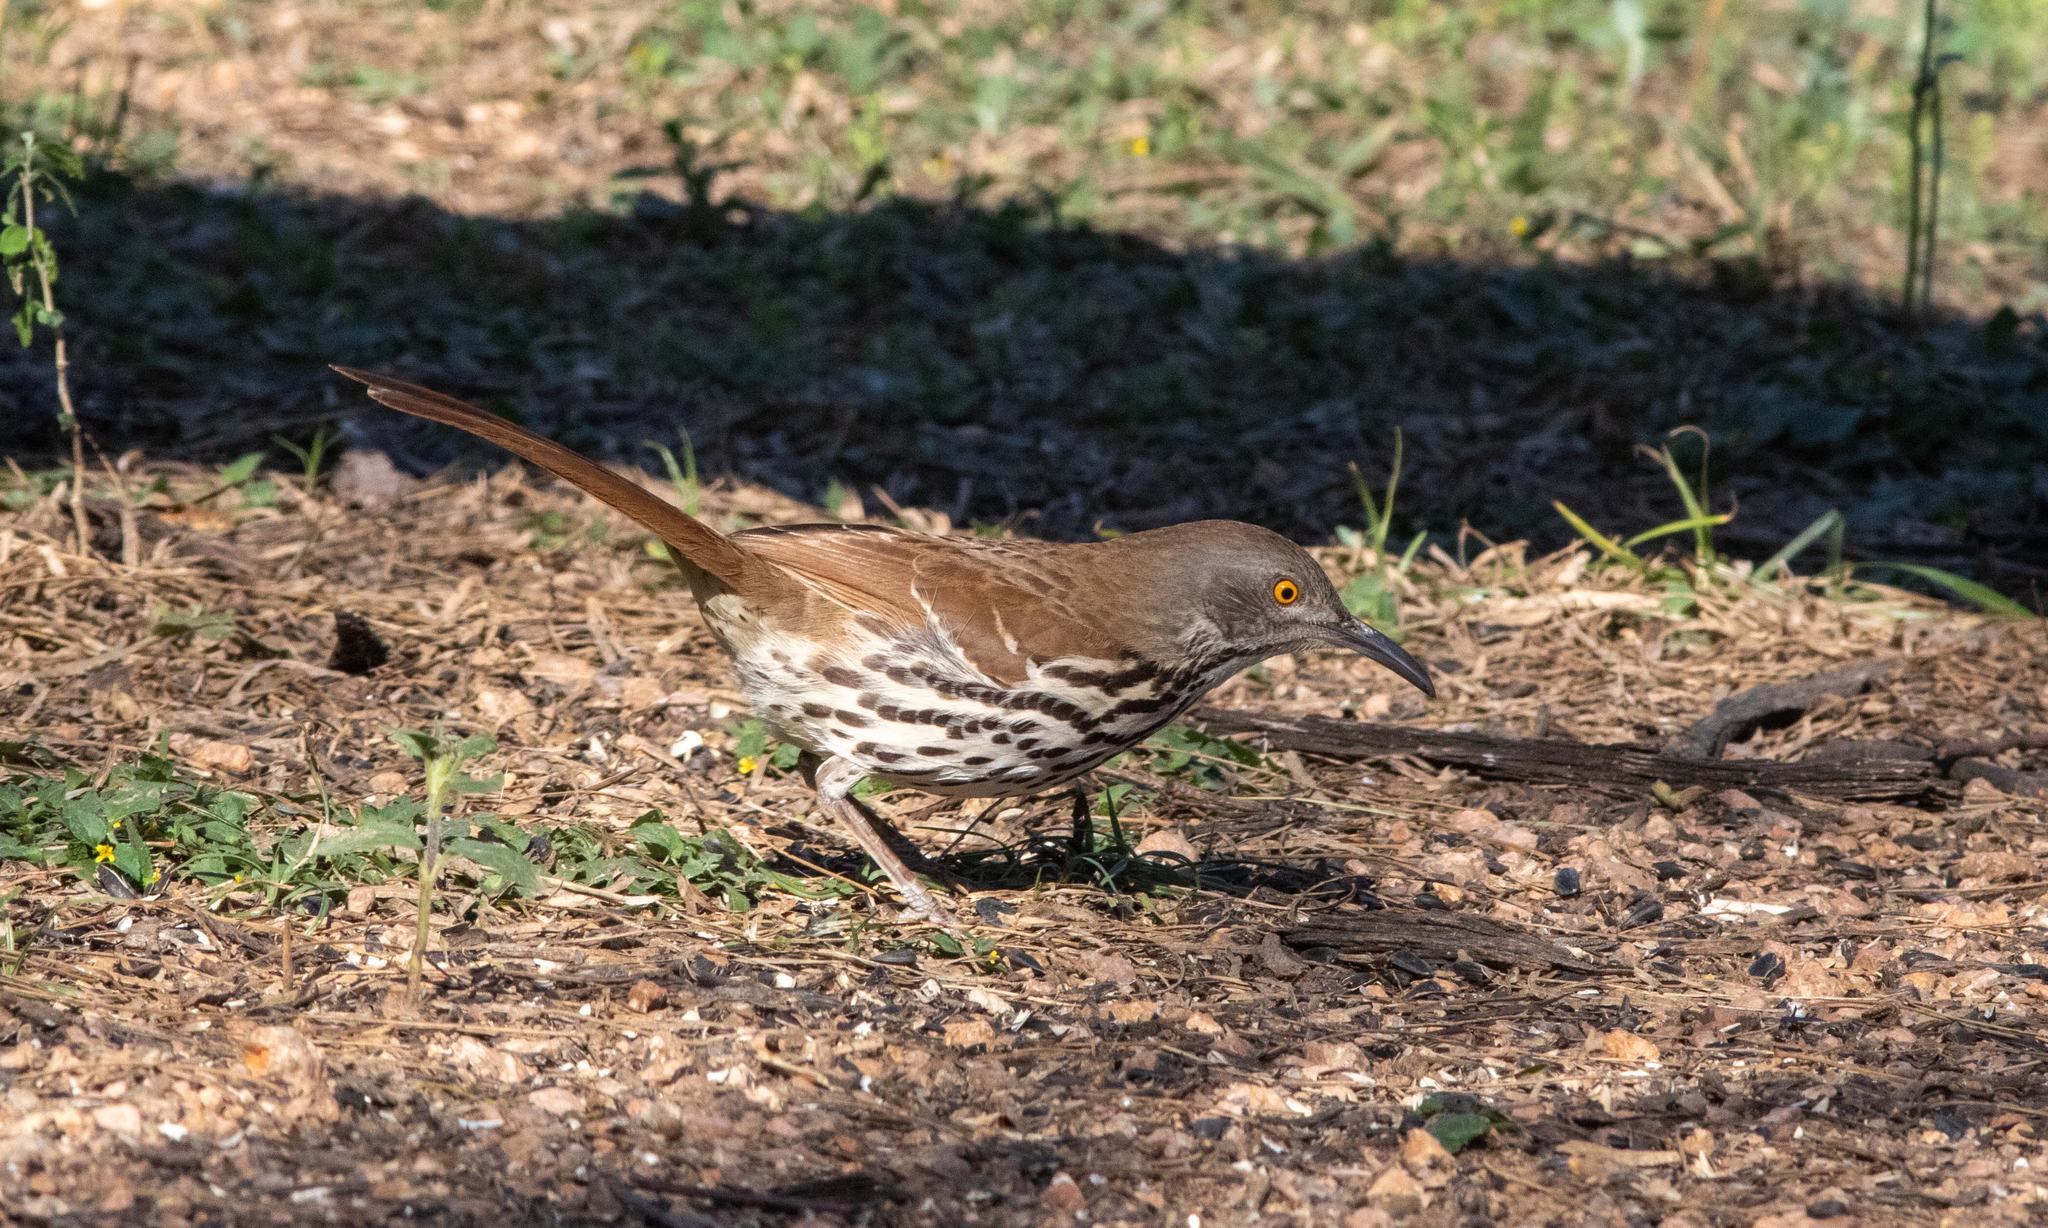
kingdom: Animalia
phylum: Chordata
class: Aves
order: Passeriformes
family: Mimidae
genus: Toxostoma
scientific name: Toxostoma longirostre
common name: Long-billed thrasher
